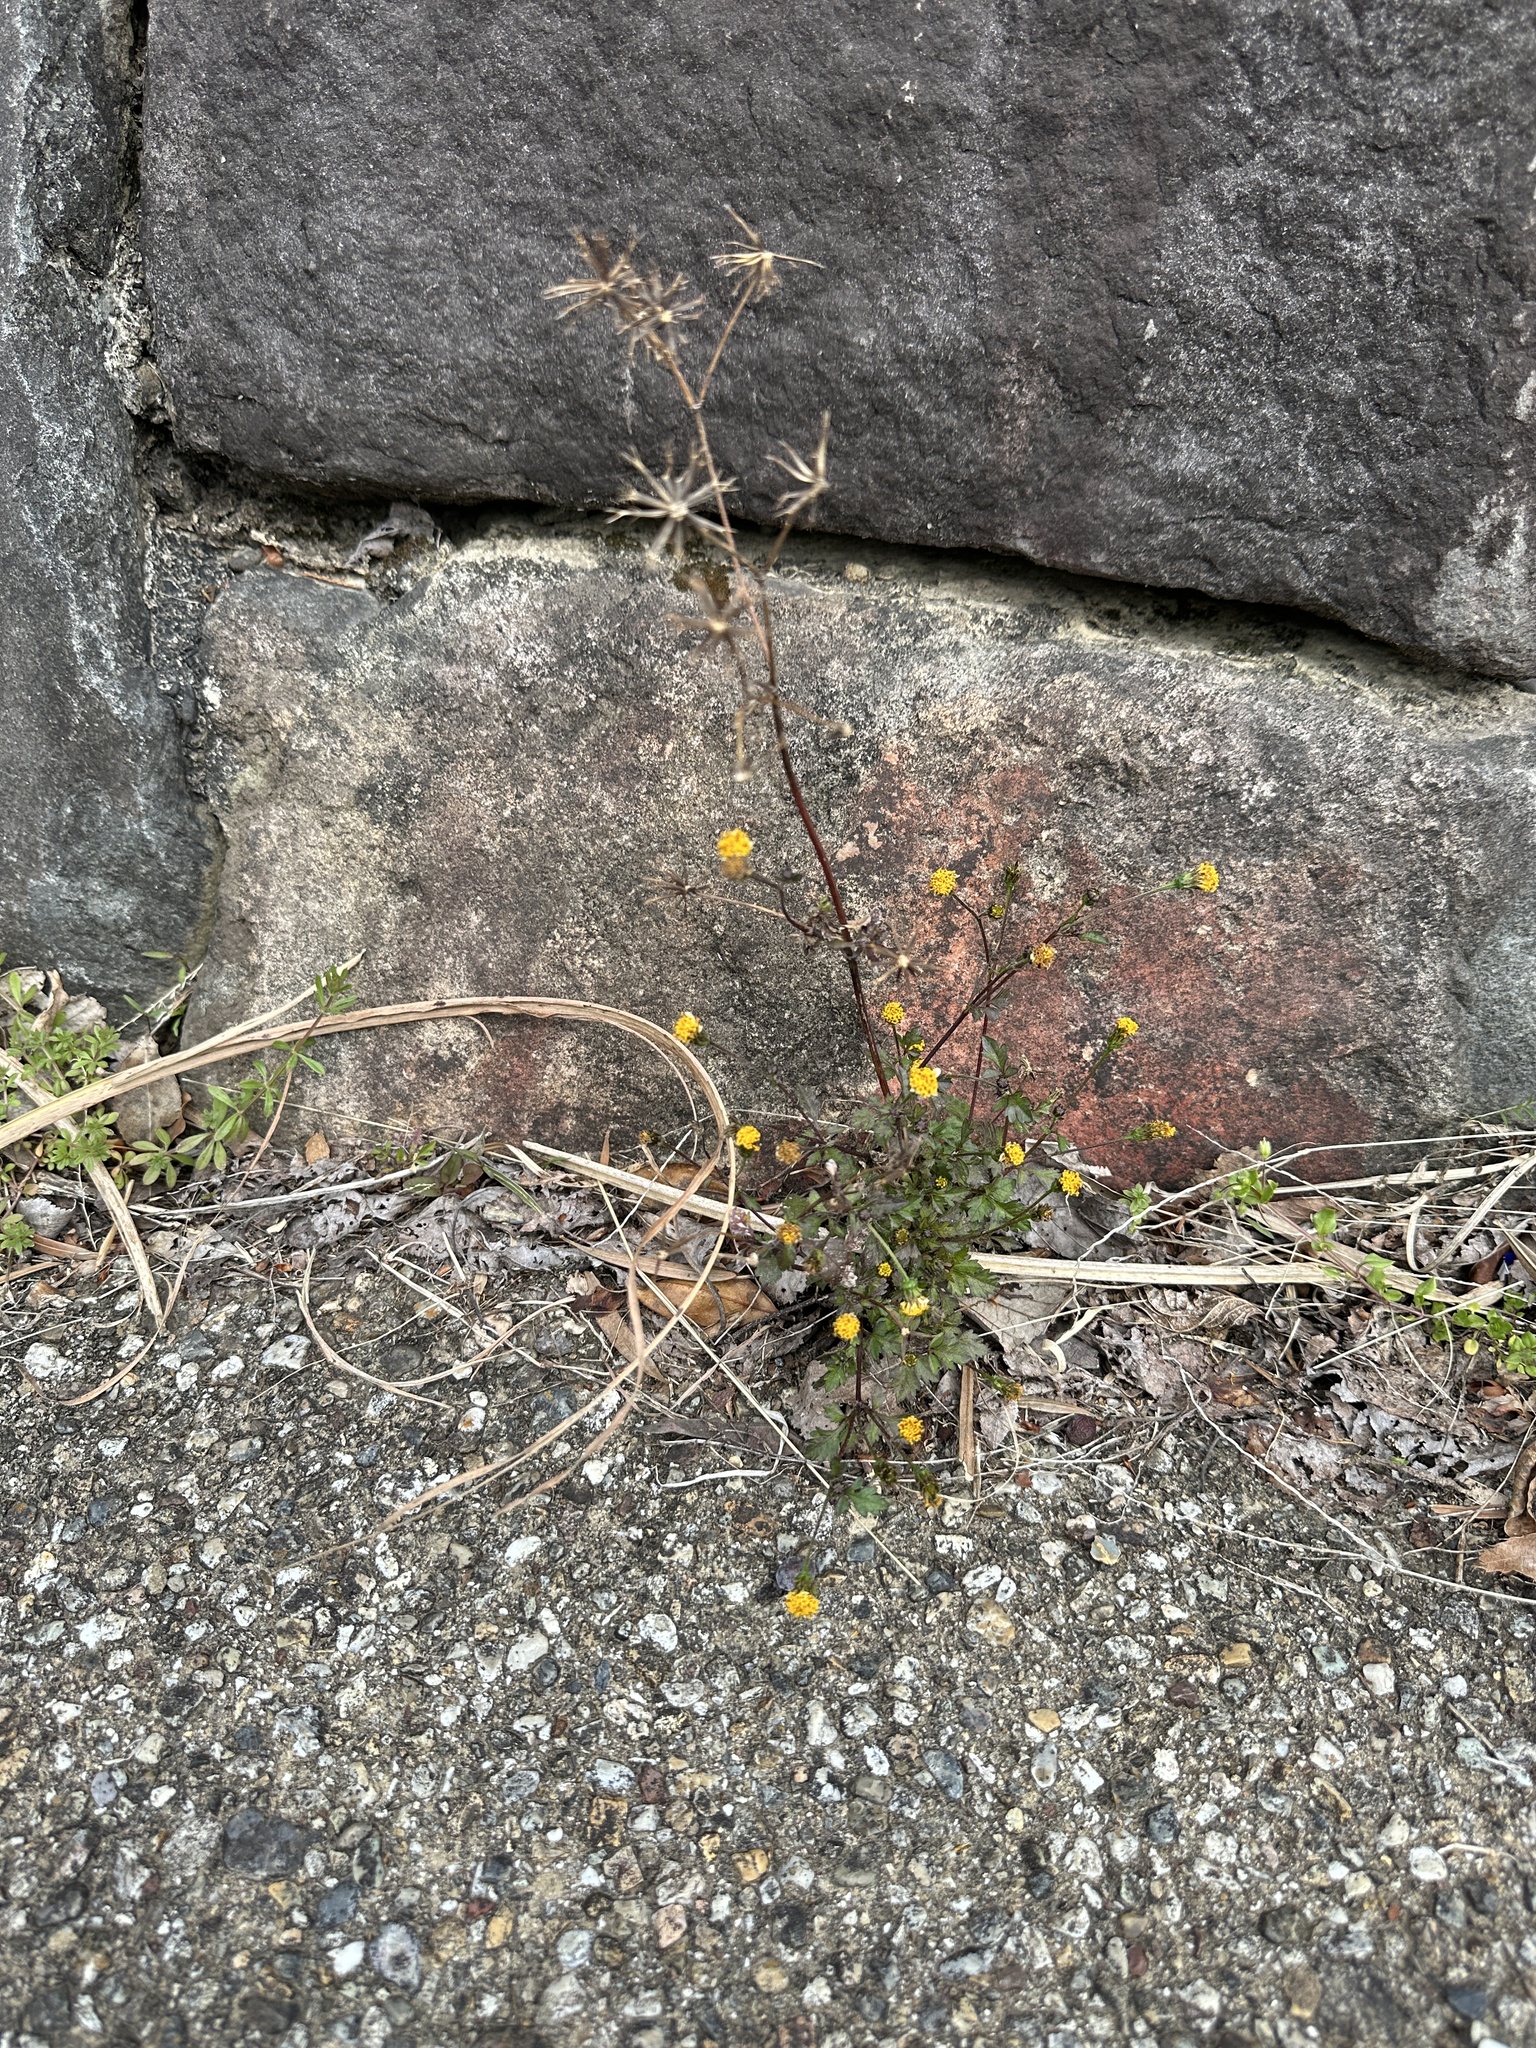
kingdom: Plantae
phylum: Tracheophyta
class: Magnoliopsida
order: Asterales
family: Asteraceae
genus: Bidens
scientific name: Bidens pilosa
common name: Black-jack
